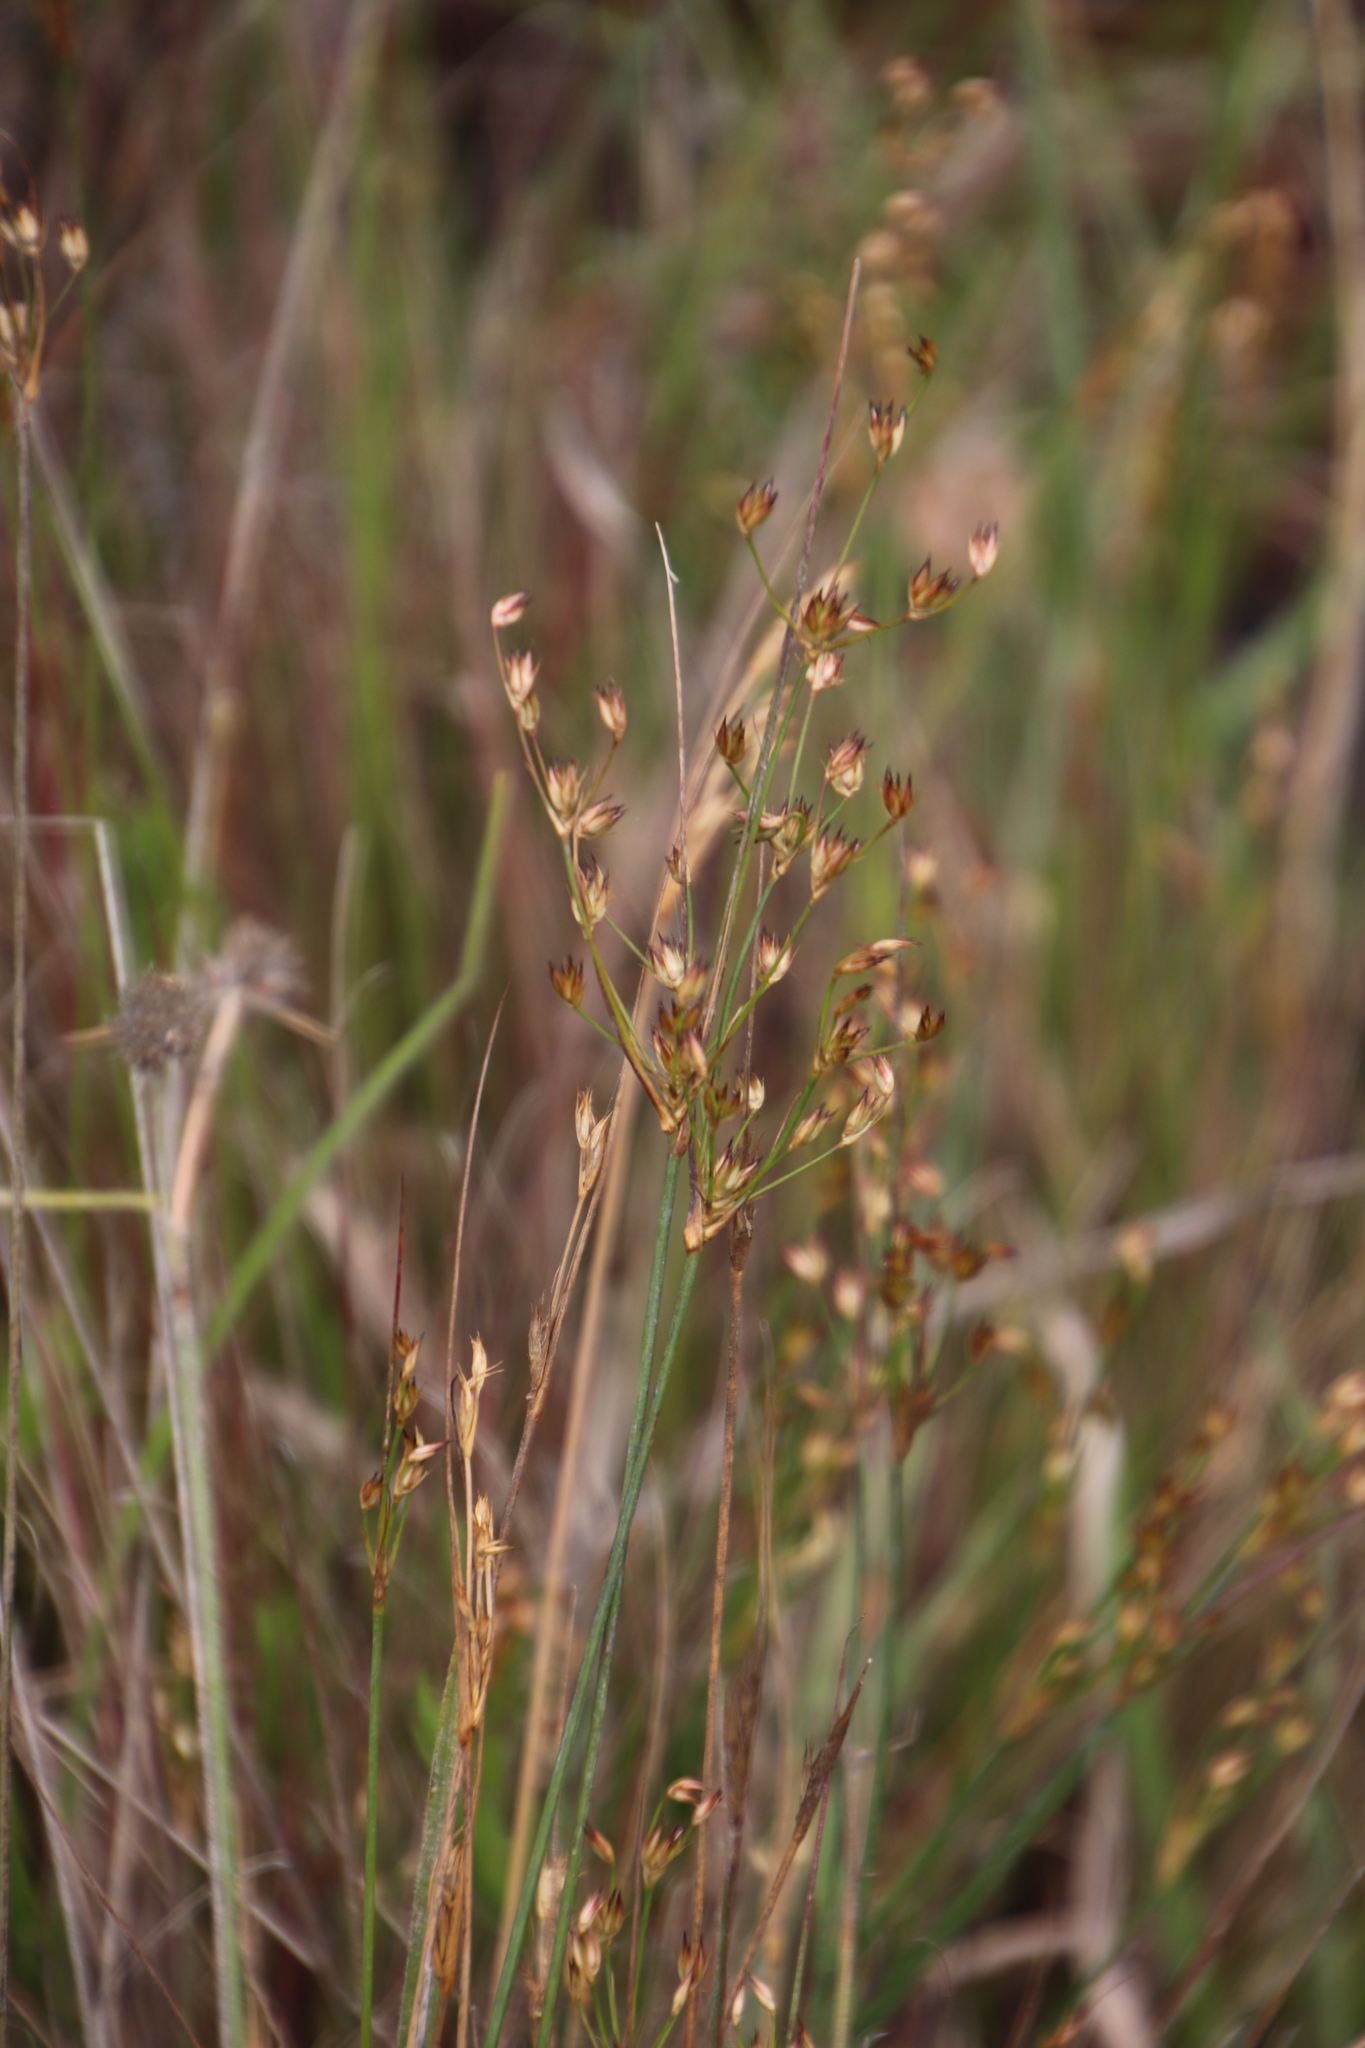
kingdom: Plantae
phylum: Tracheophyta
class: Liliopsida
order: Poales
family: Juncaceae
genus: Juncus
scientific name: Juncus capensis
